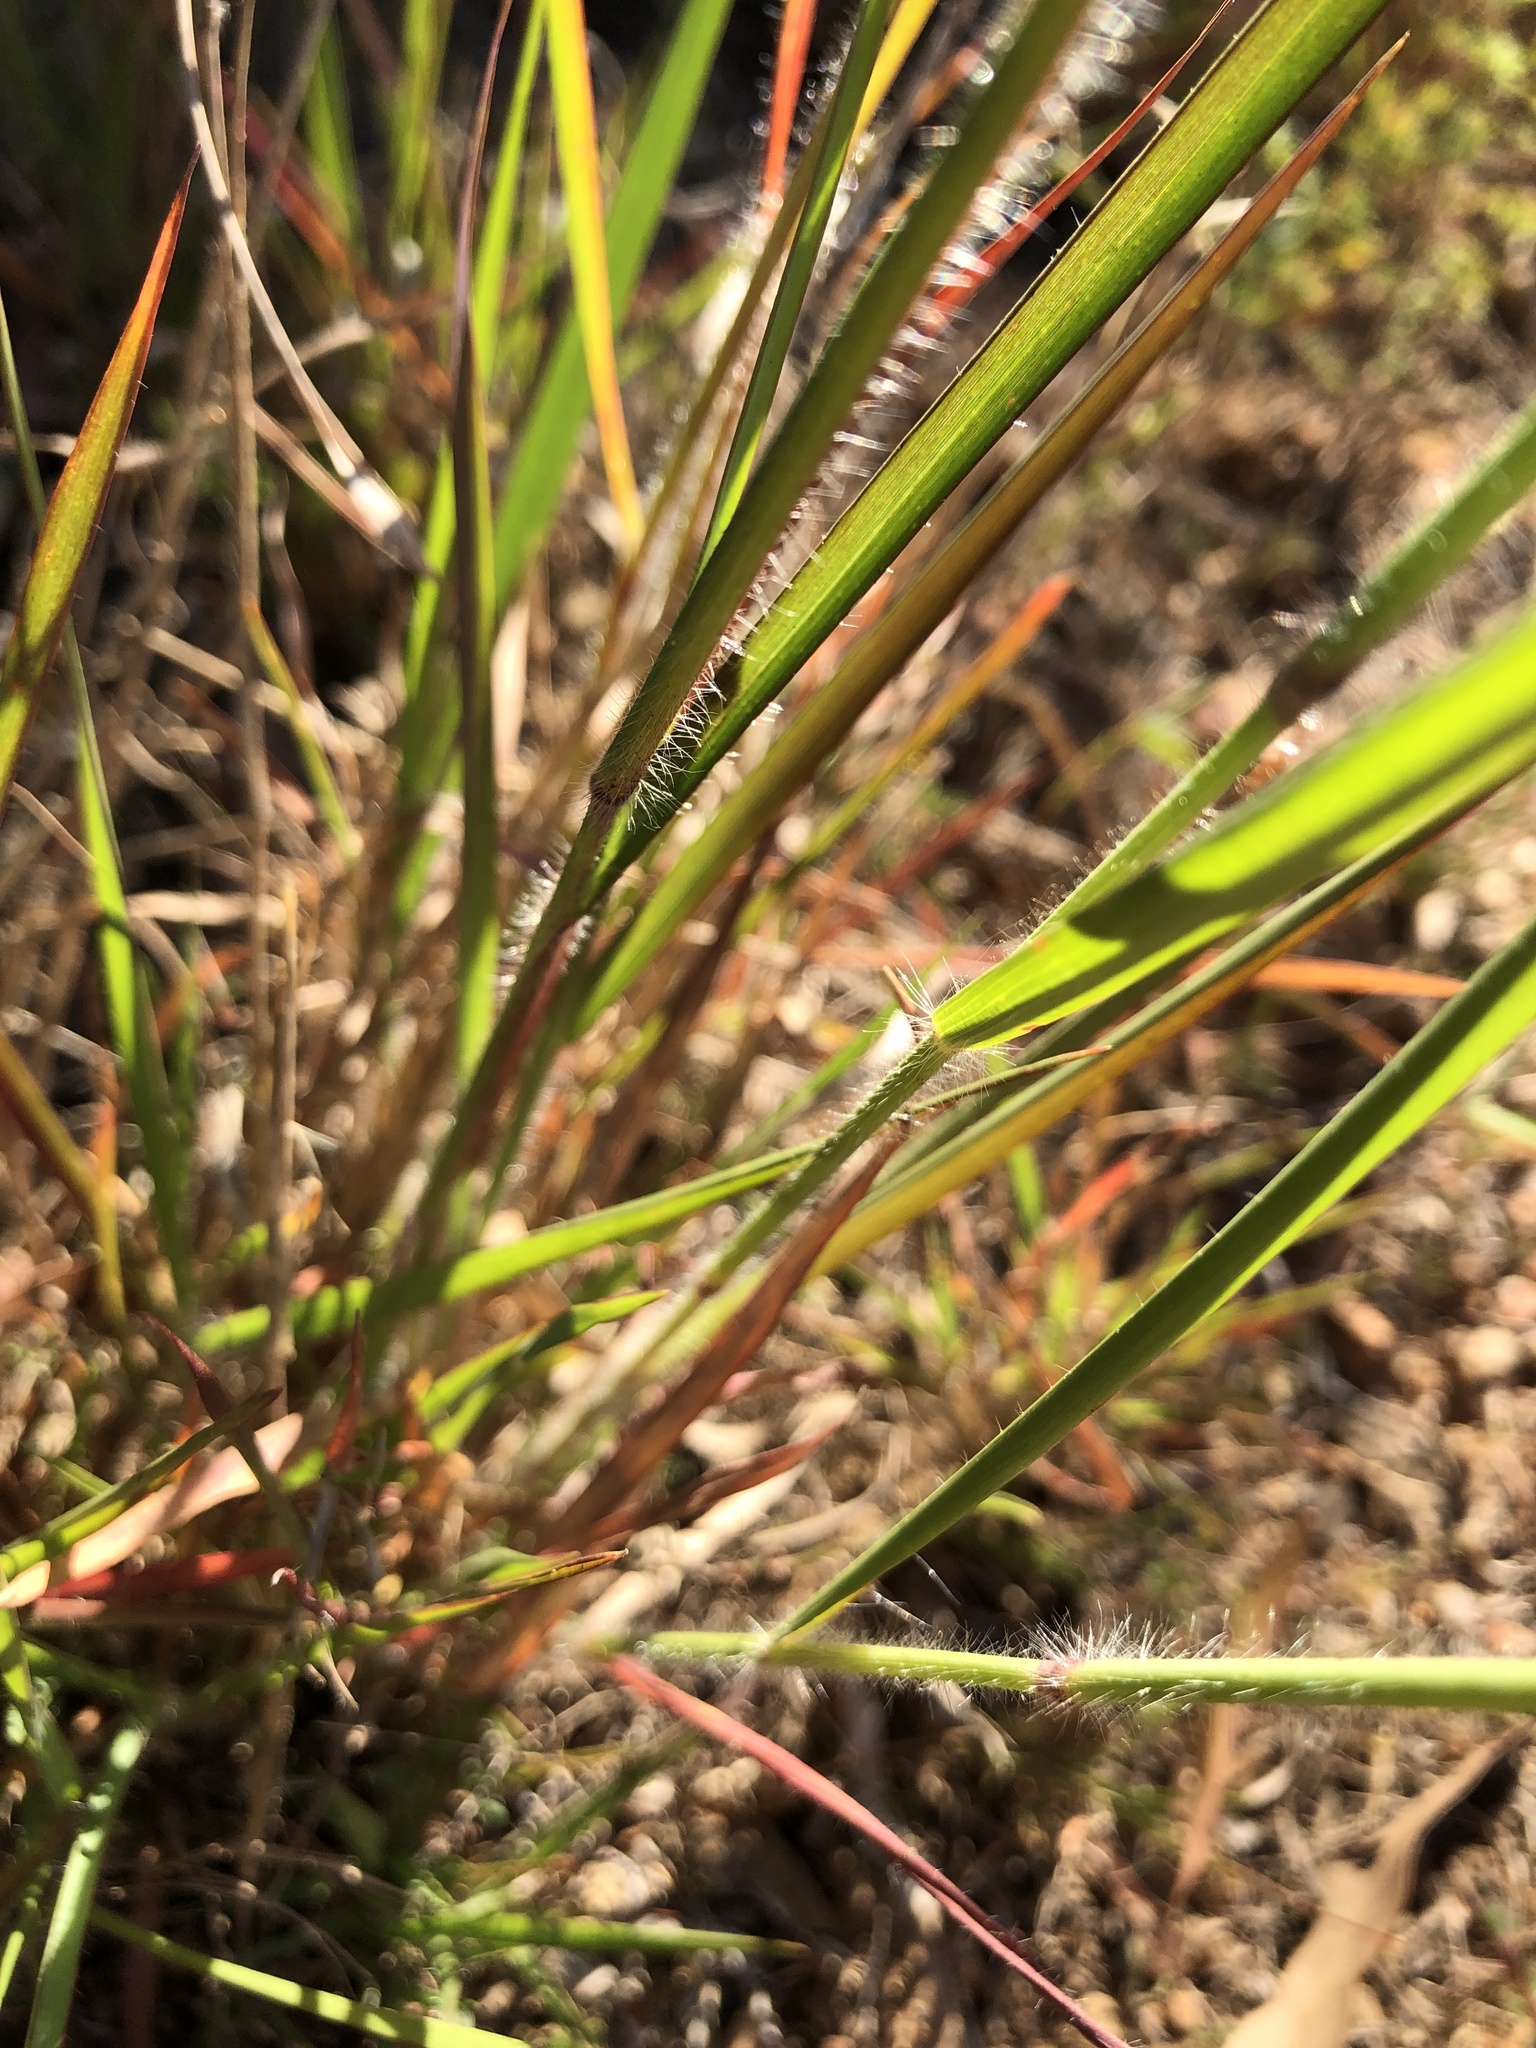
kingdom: Plantae
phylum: Tracheophyta
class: Liliopsida
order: Poales
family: Poaceae
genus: Melinis
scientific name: Melinis repens
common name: Rose natal grass
